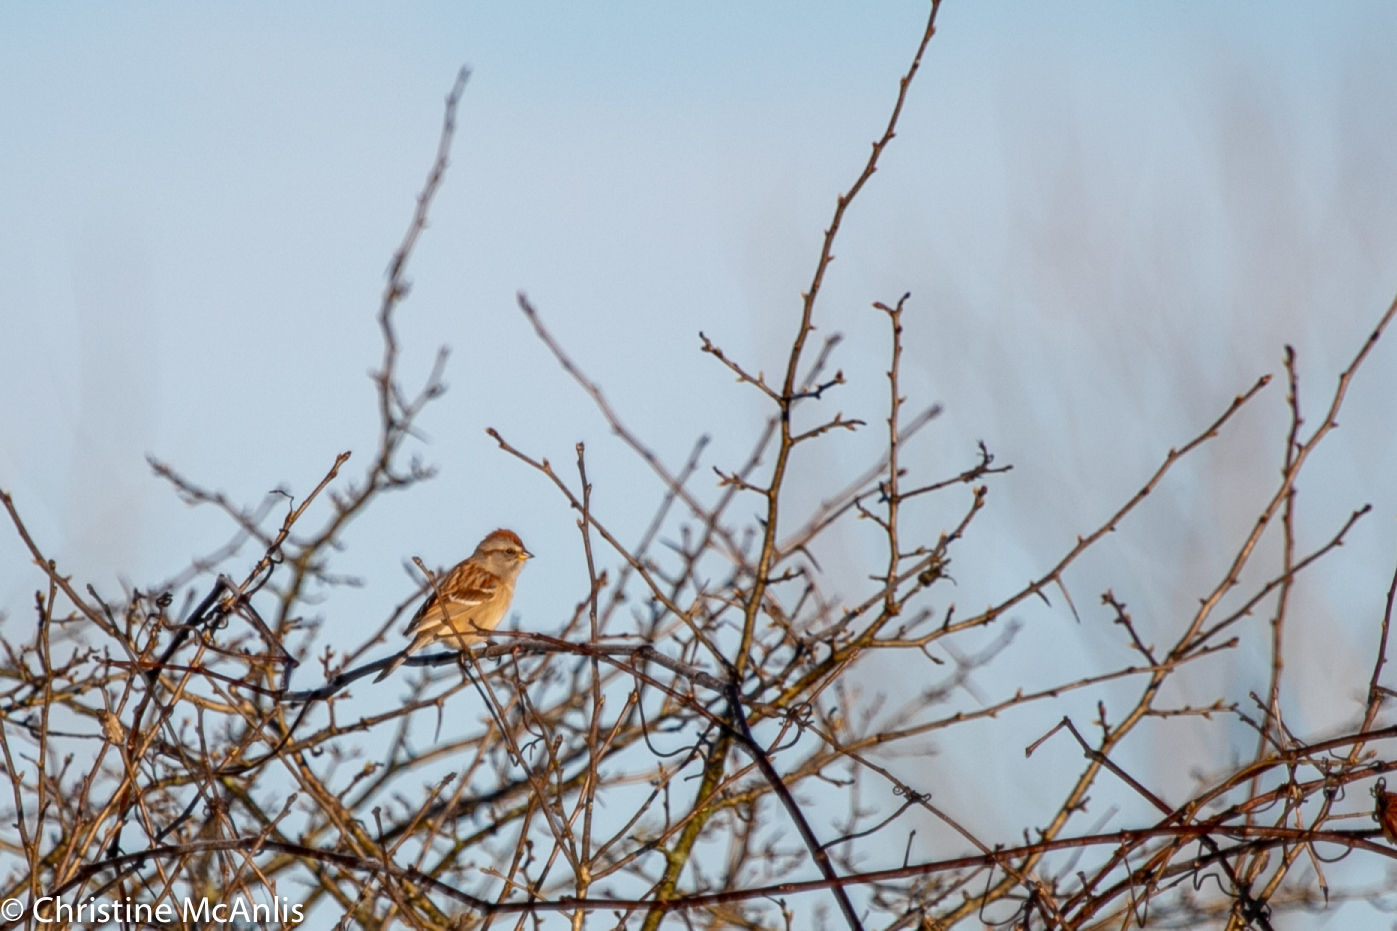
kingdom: Animalia
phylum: Chordata
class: Aves
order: Passeriformes
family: Passerellidae
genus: Spizelloides
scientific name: Spizelloides arborea
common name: American tree sparrow
